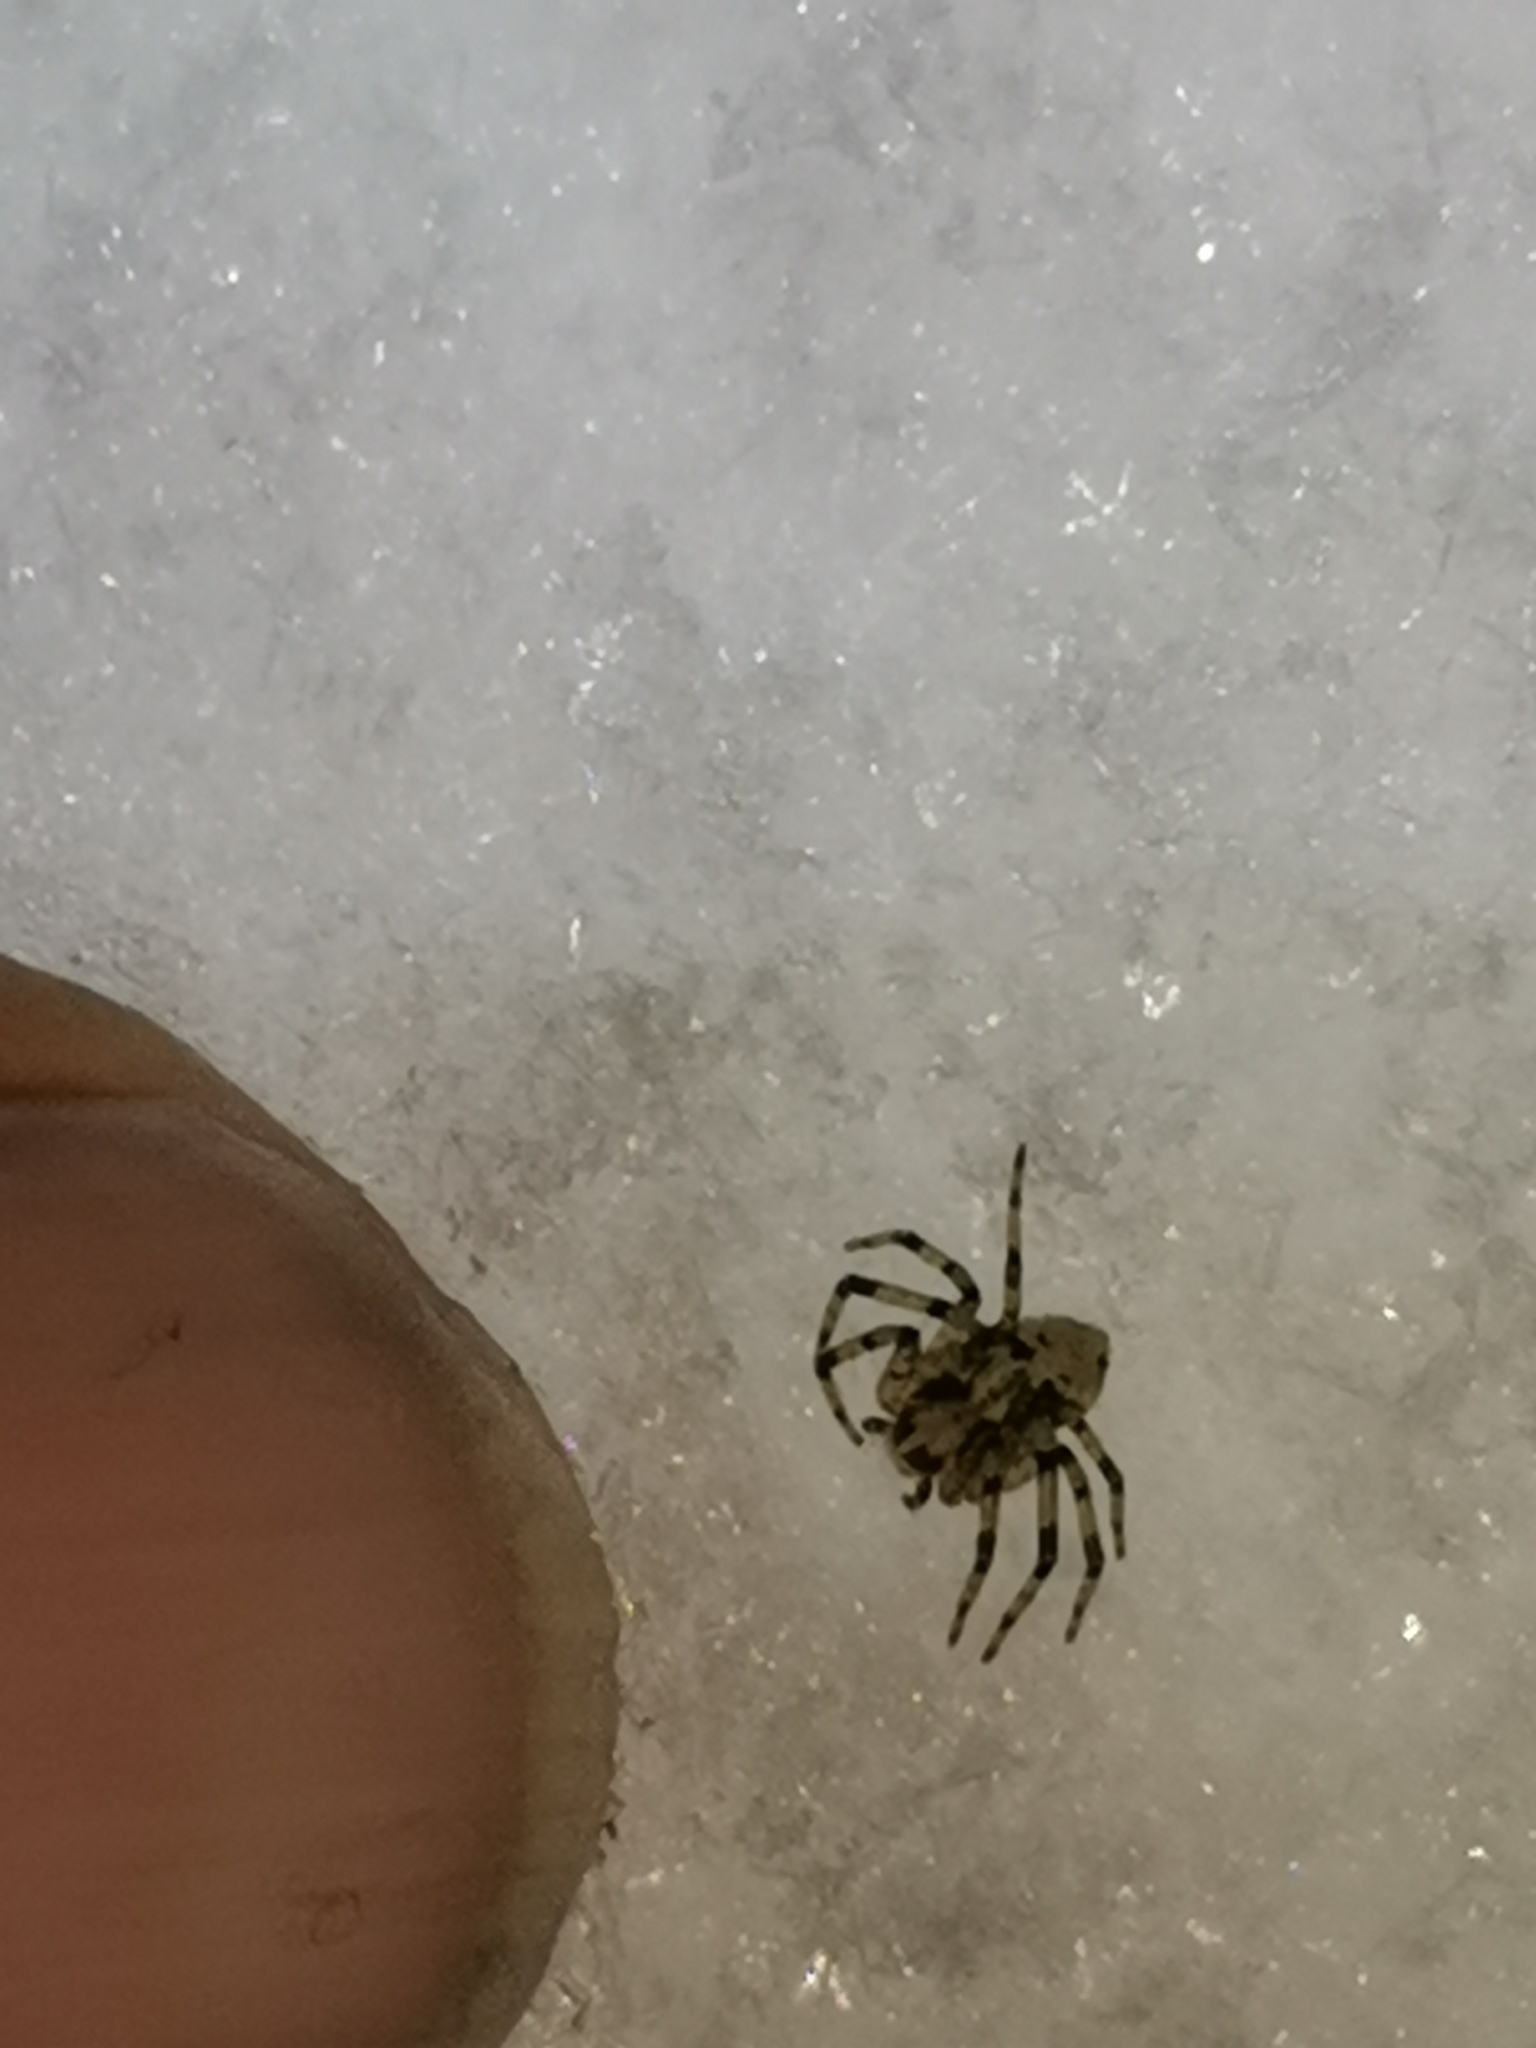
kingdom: Animalia
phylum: Arthropoda
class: Arachnida
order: Araneae
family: Philodromidae
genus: Philodromus
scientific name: Philodromus margaritatus
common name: Lichen running-spider
